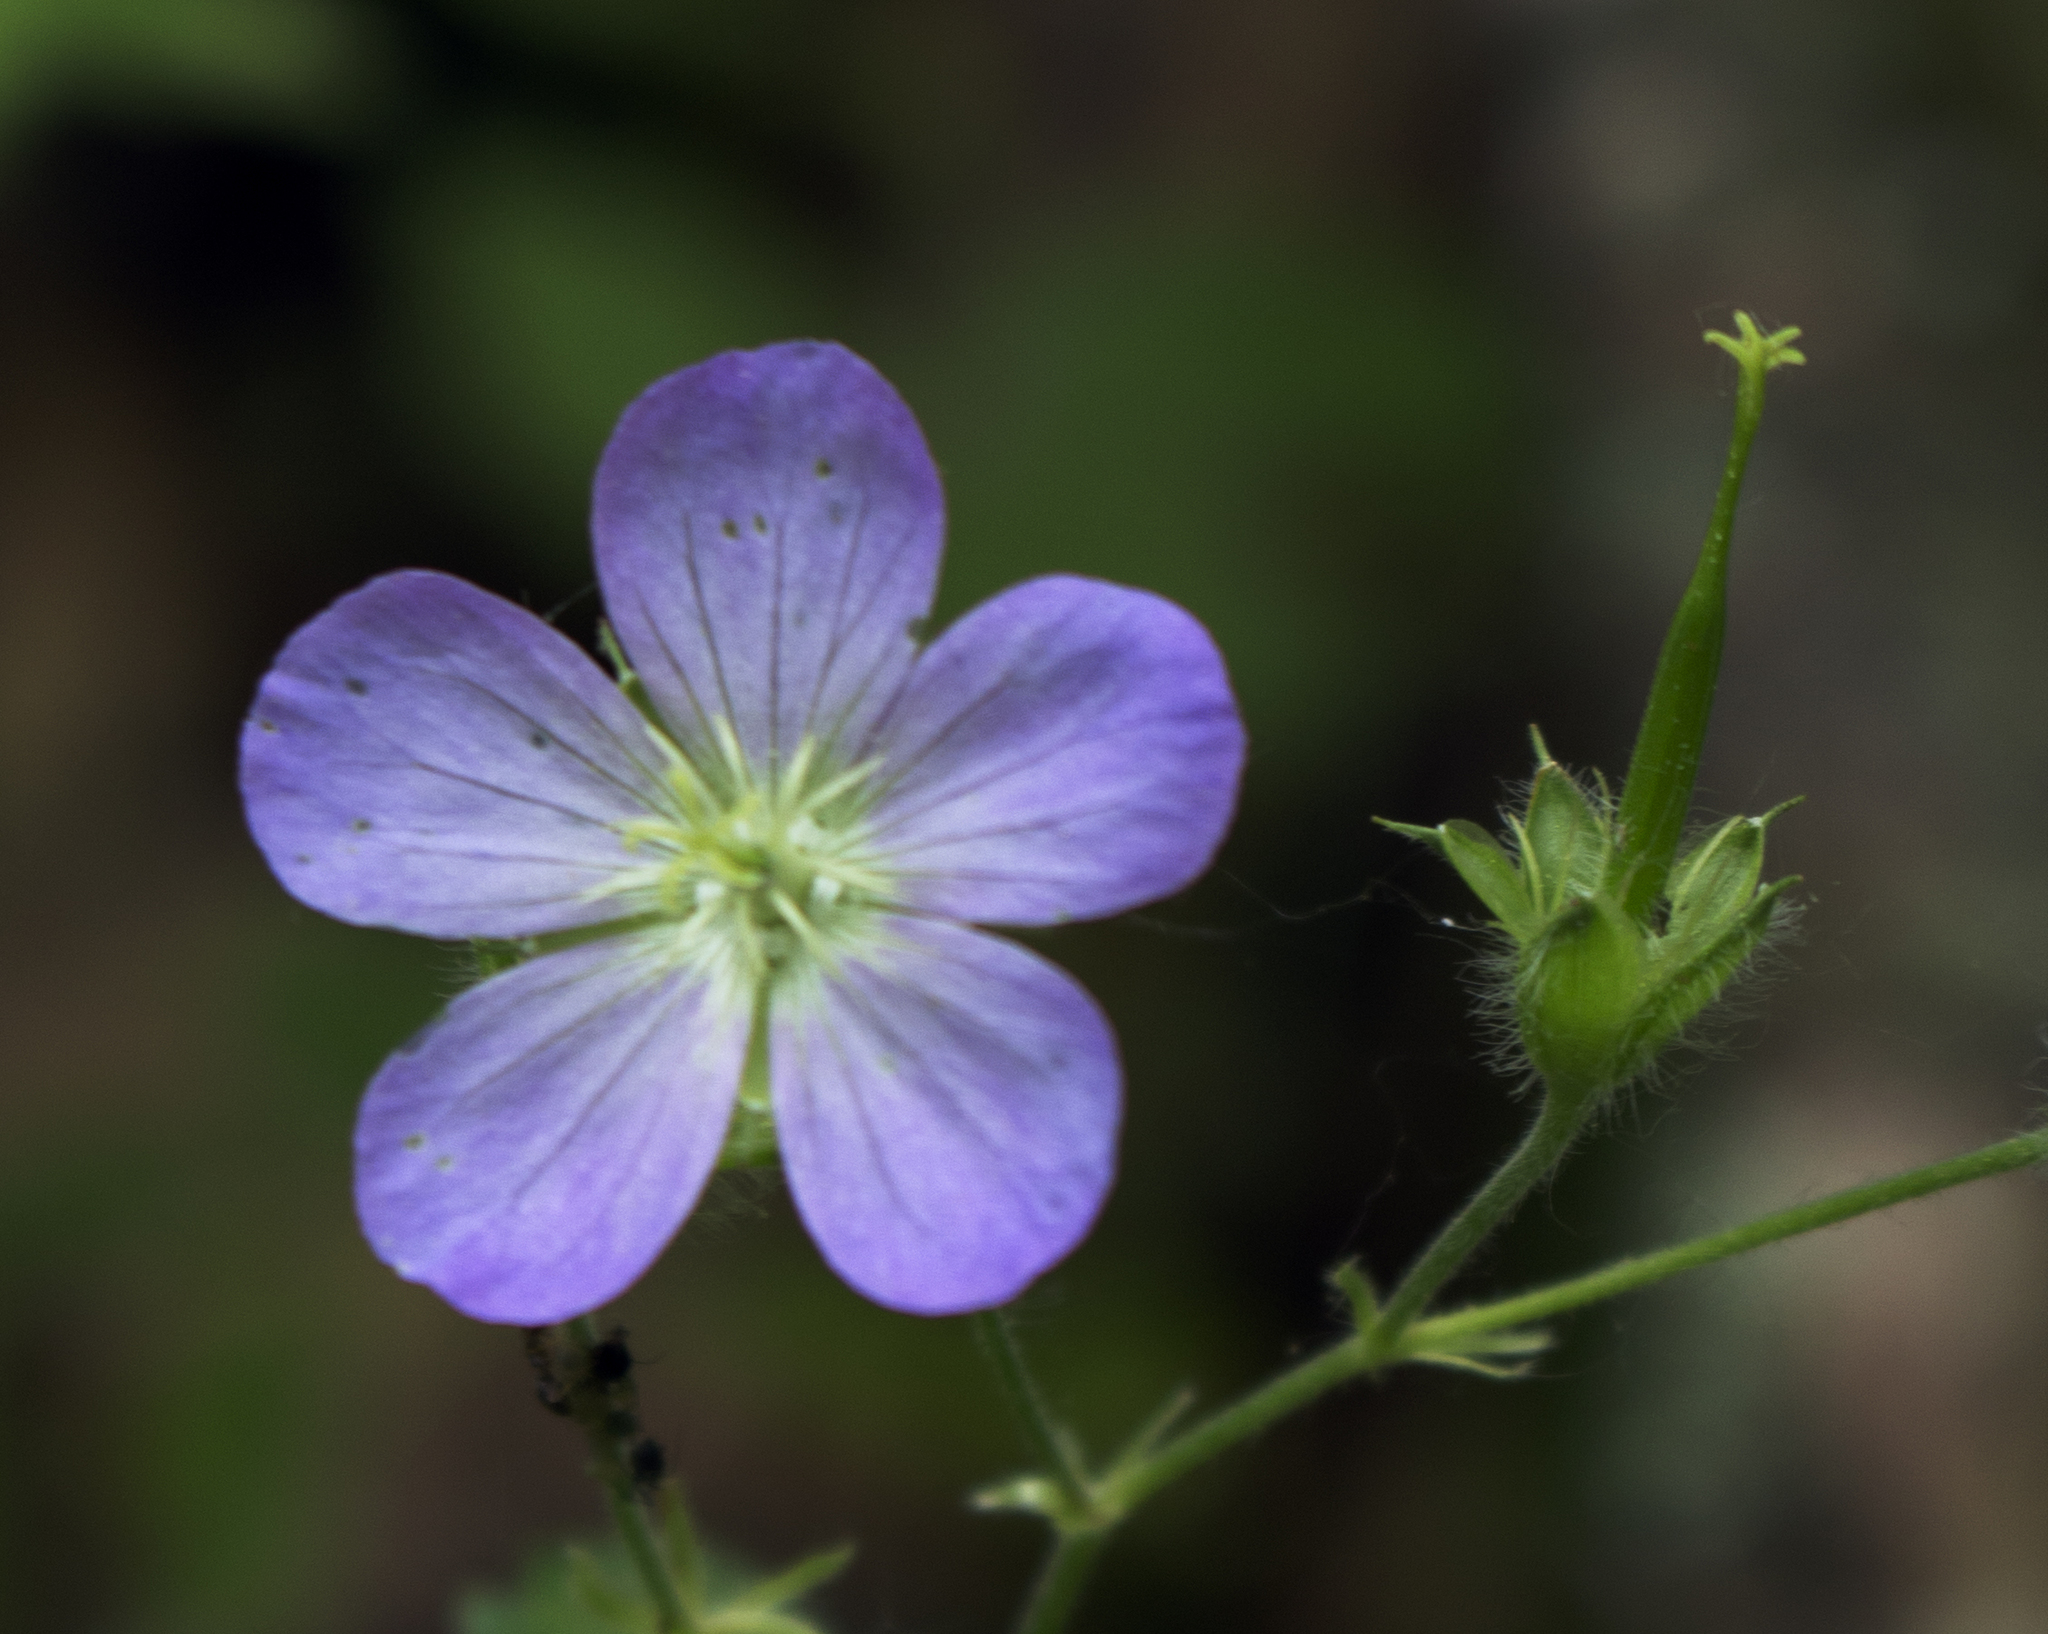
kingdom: Plantae
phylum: Tracheophyta
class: Magnoliopsida
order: Geraniales
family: Geraniaceae
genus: Geranium
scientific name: Geranium maculatum
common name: Spotted geranium
